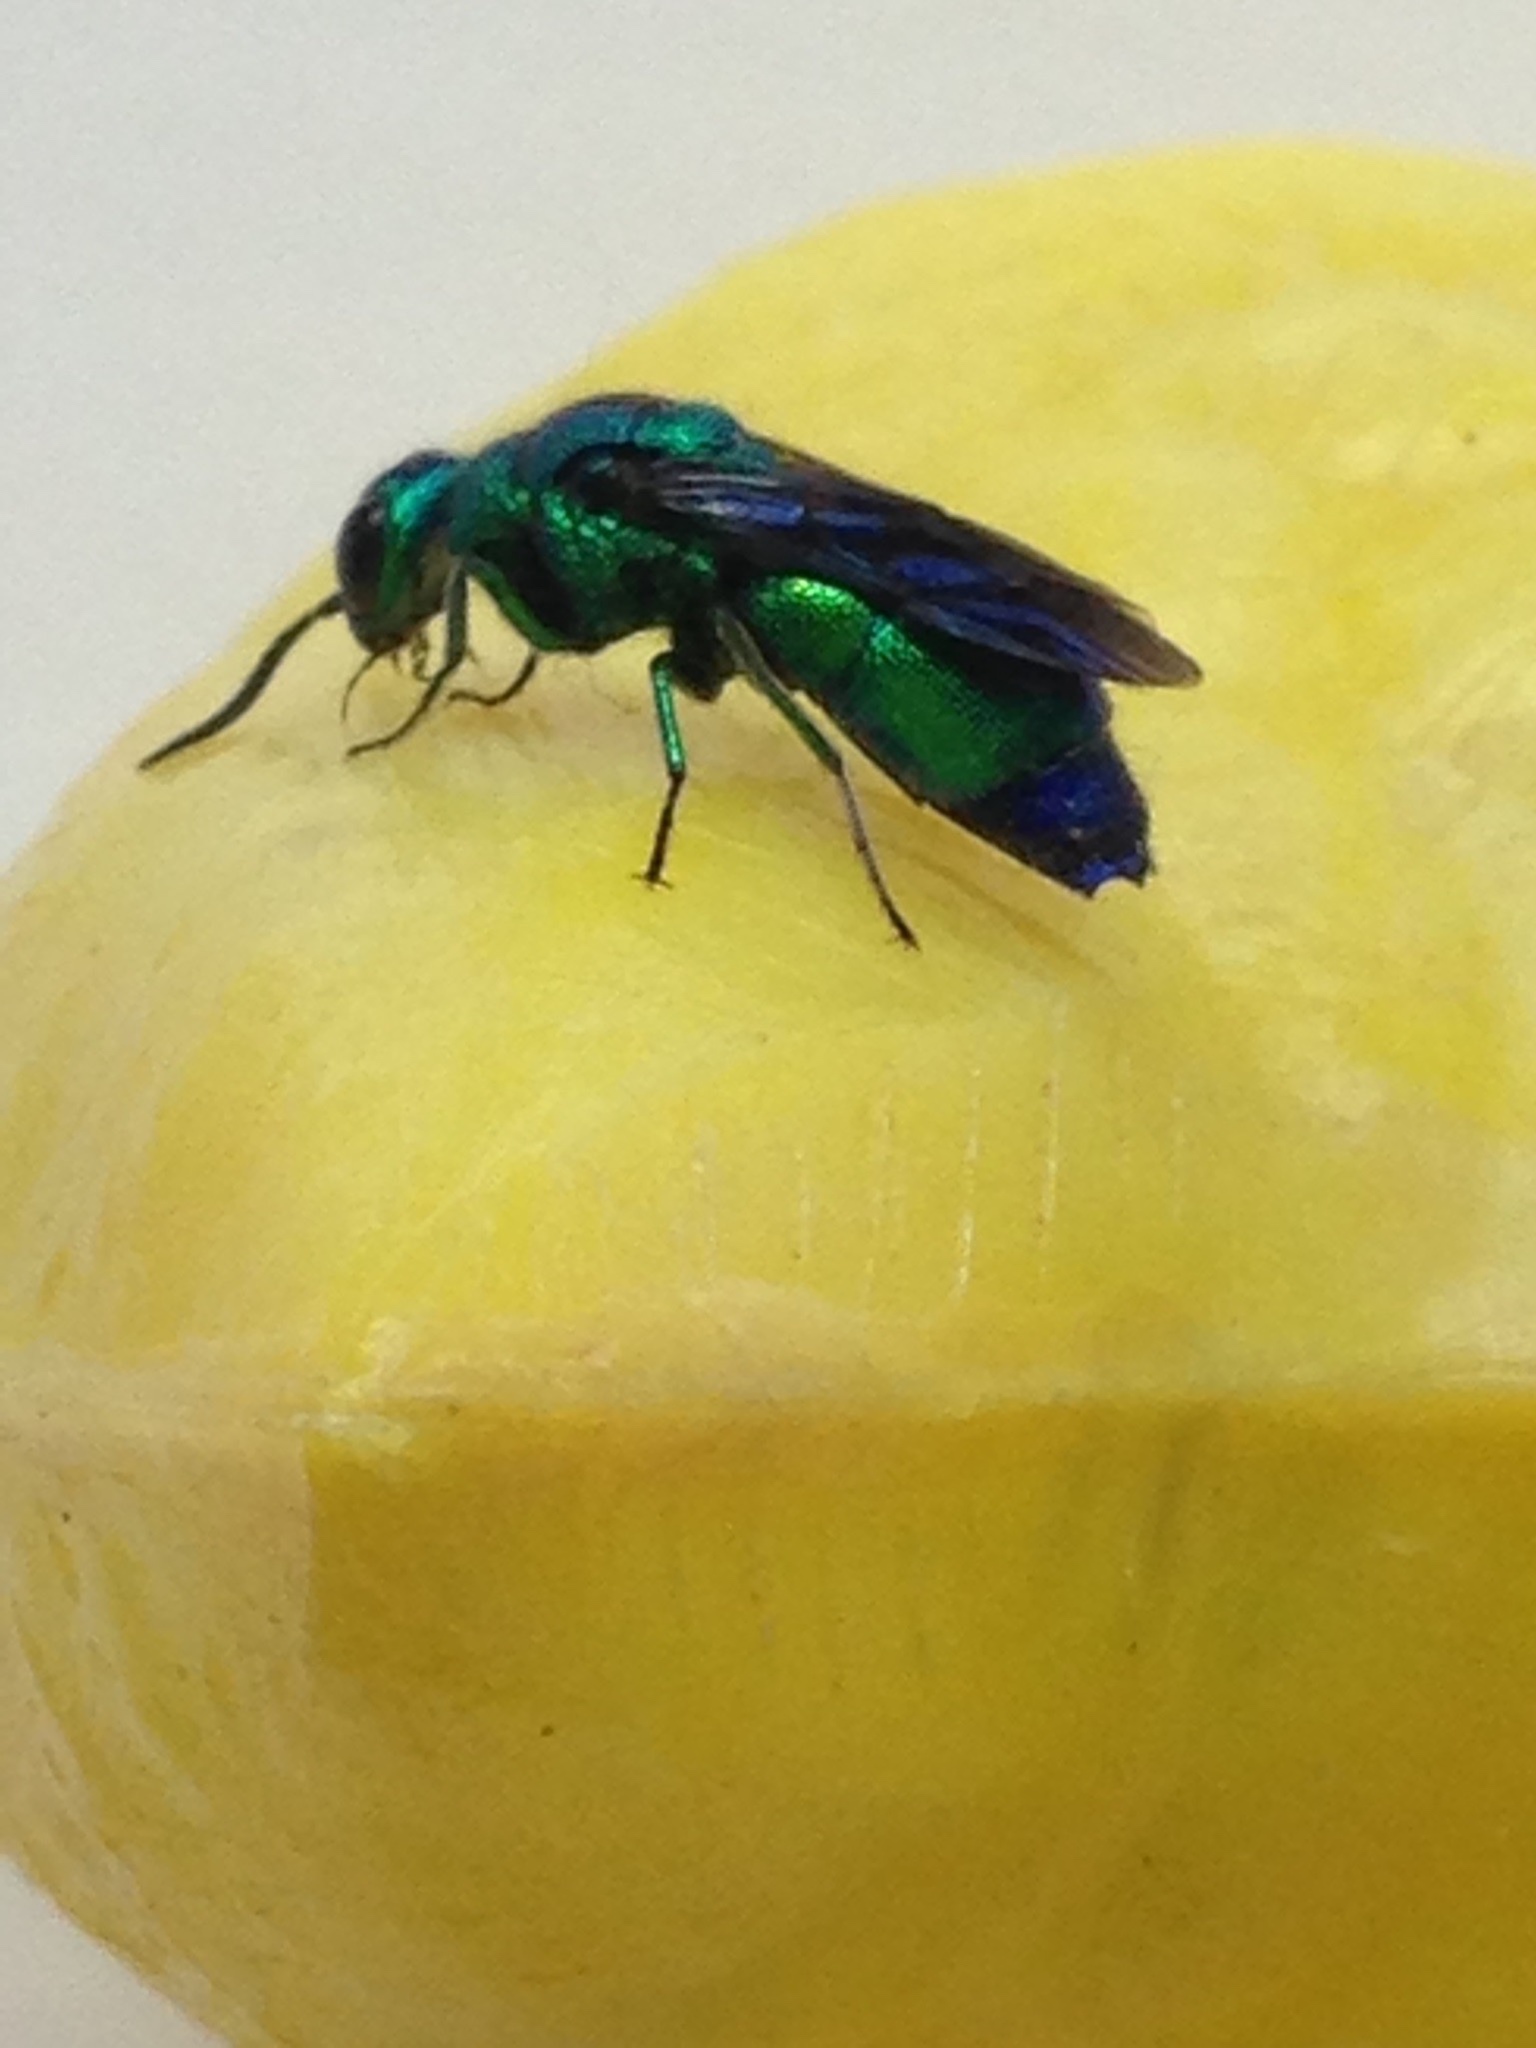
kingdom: Animalia
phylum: Arthropoda
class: Insecta
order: Hymenoptera
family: Chrysididae
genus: Chrysis
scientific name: Chrysis angolensis
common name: Cuckoo wasp
